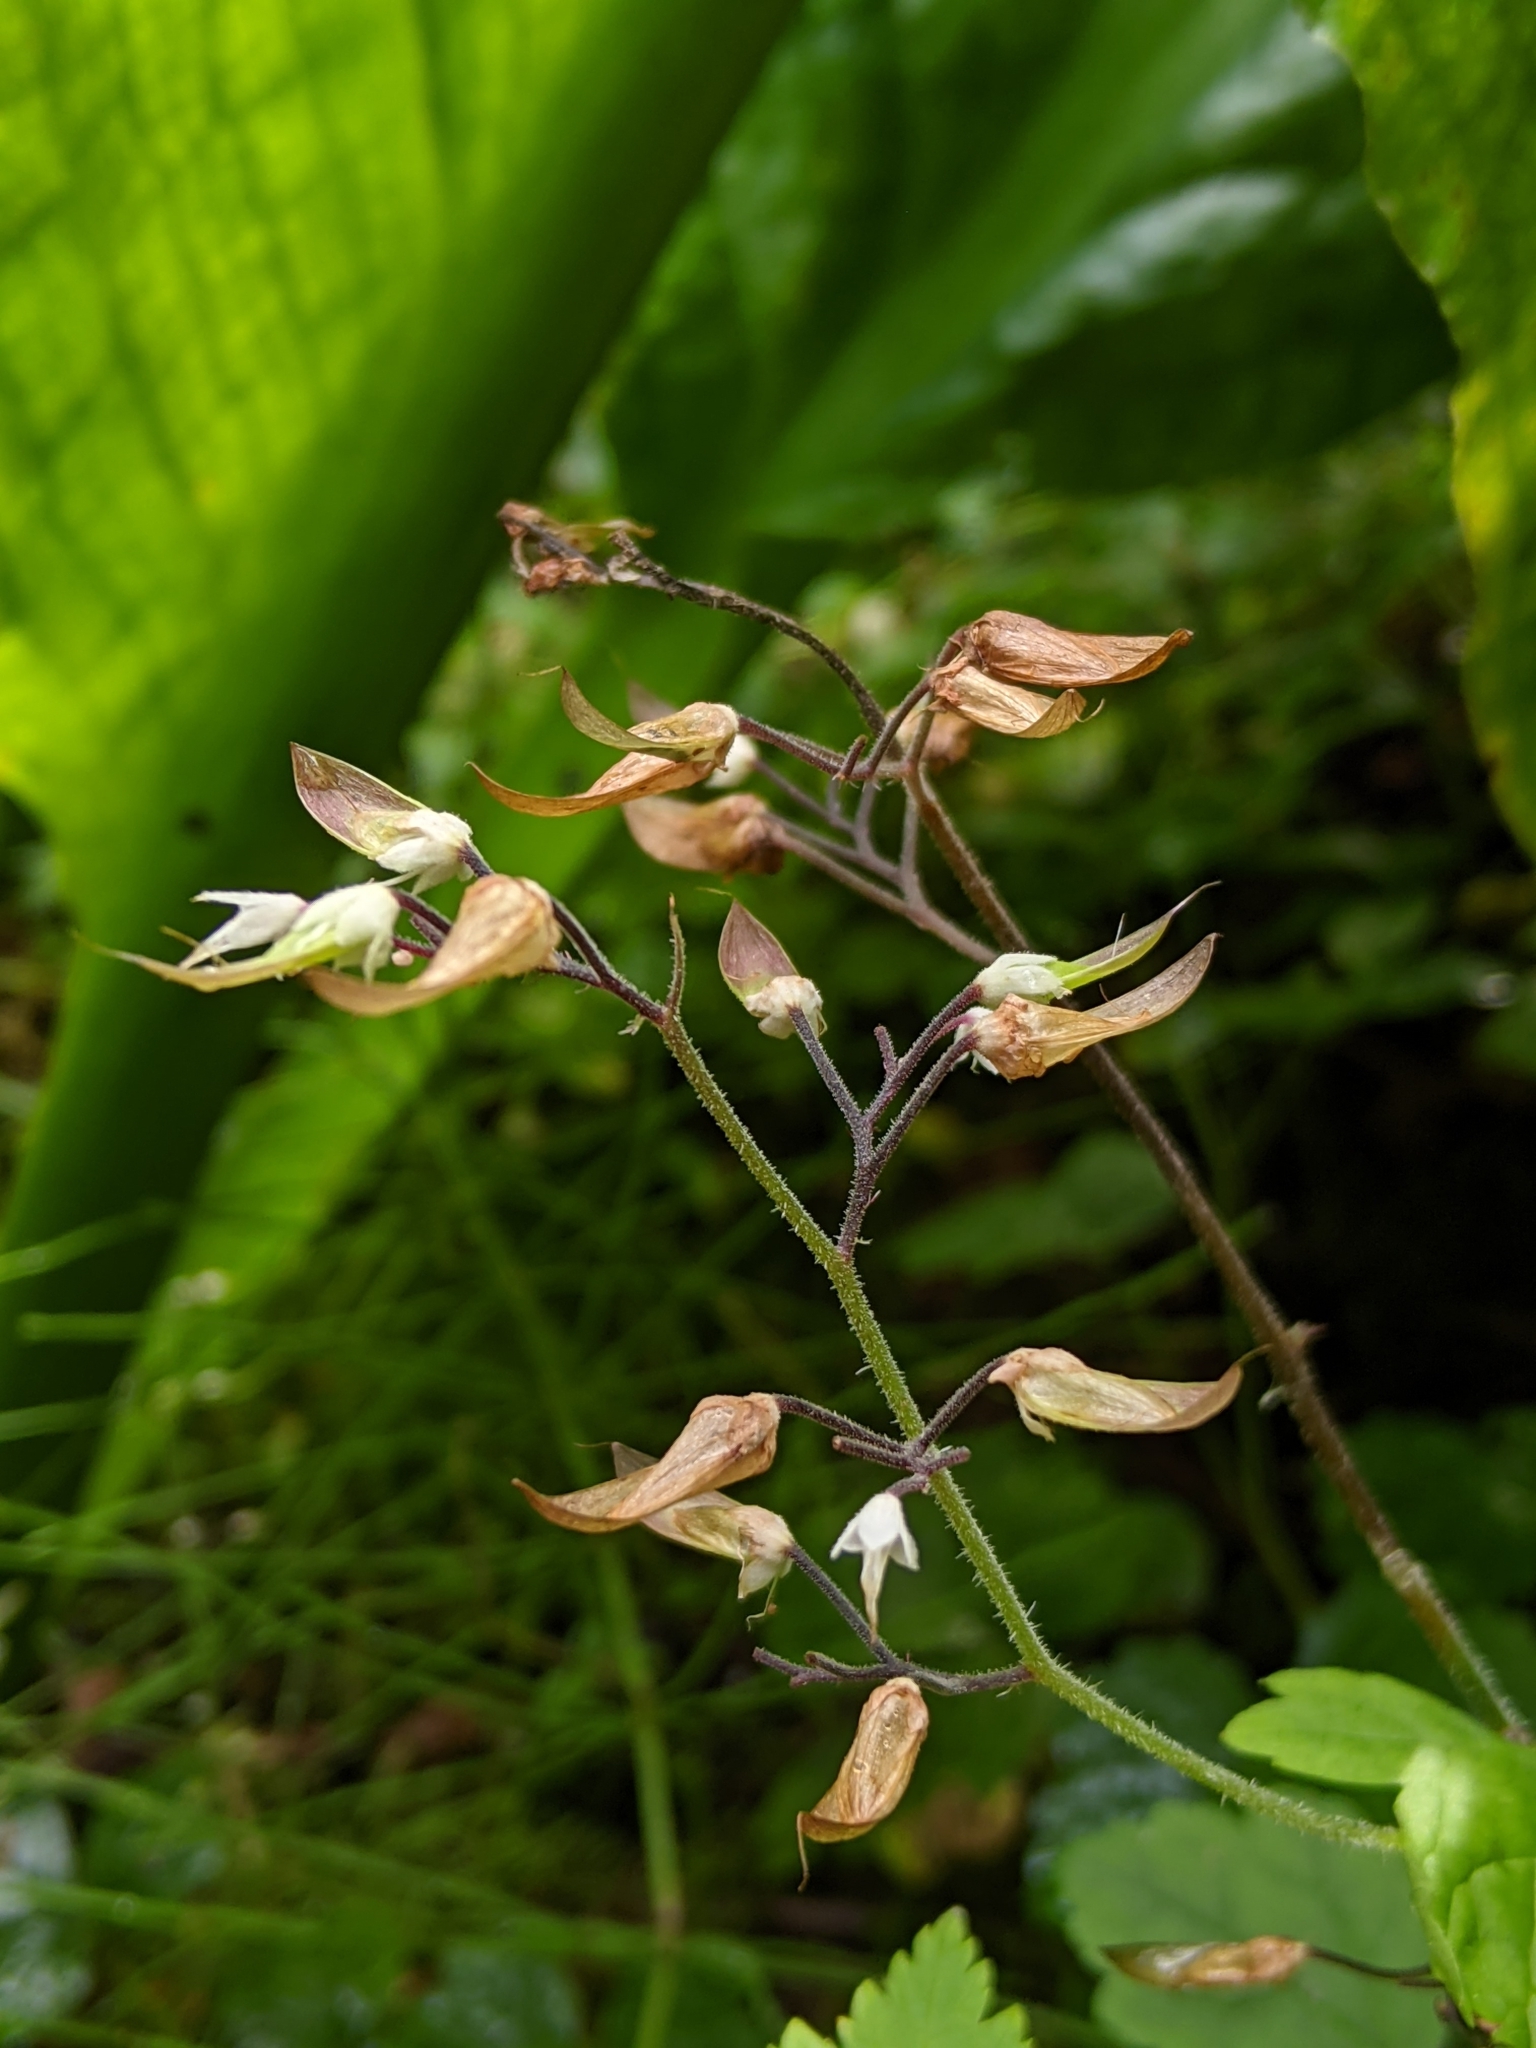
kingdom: Plantae
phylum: Tracheophyta
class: Magnoliopsida
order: Saxifragales
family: Saxifragaceae
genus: Tiarella
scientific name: Tiarella trifoliata
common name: Sugar-scoop
